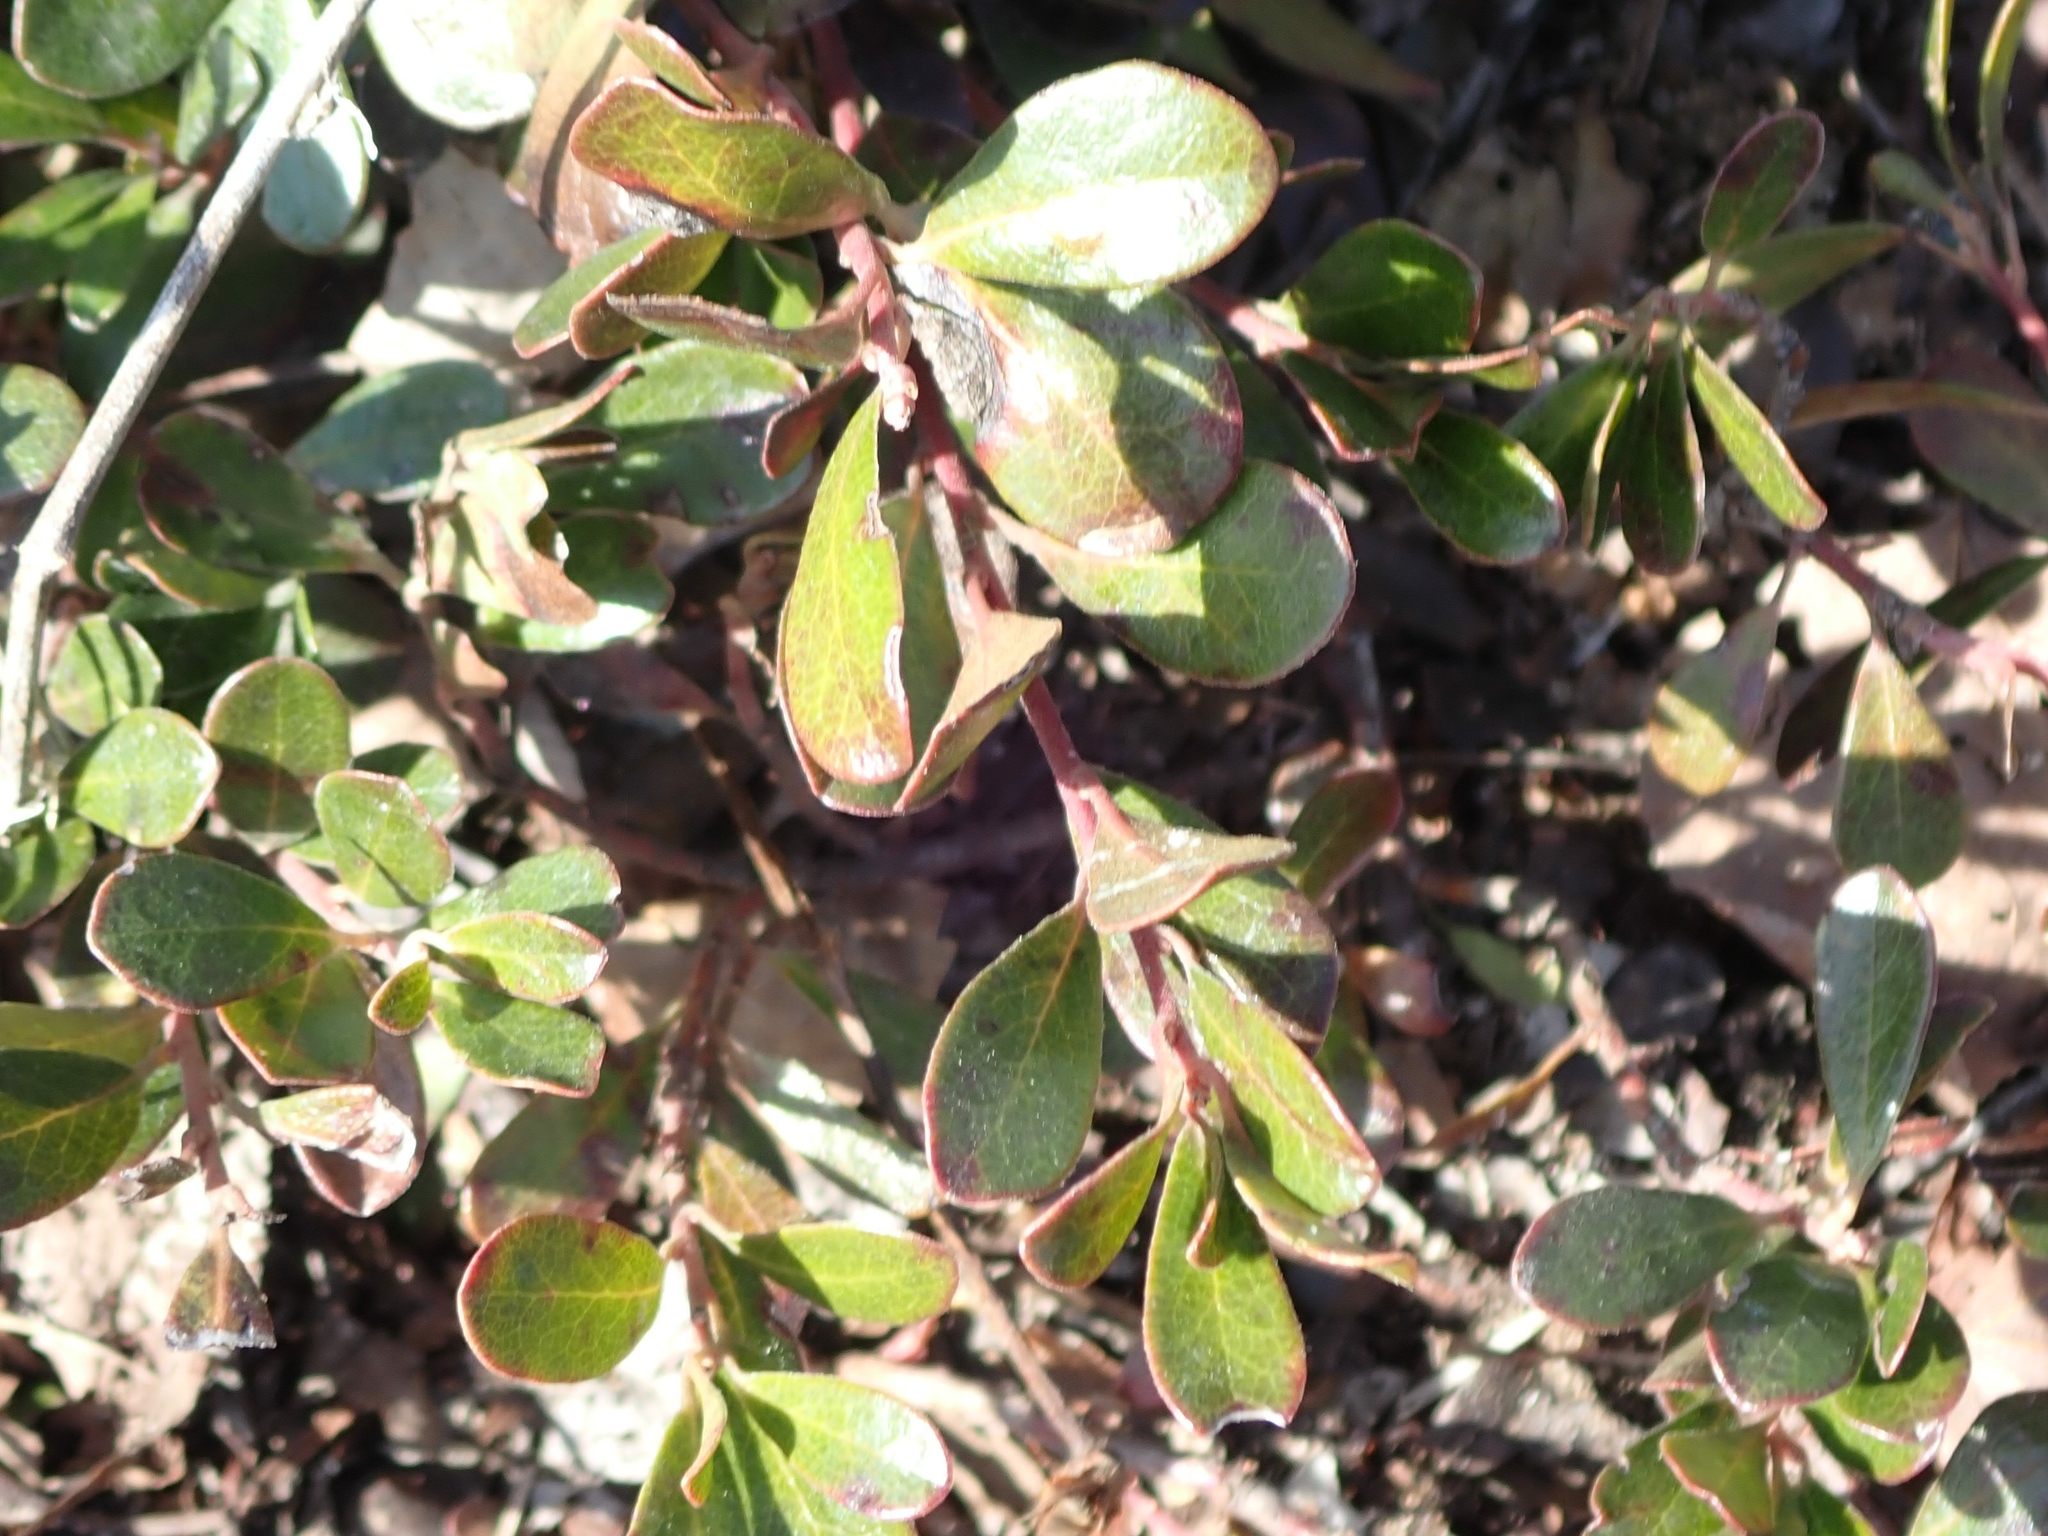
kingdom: Plantae
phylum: Tracheophyta
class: Magnoliopsida
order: Ericales
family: Ericaceae
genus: Arctostaphylos
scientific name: Arctostaphylos uva-ursi
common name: Bearberry
